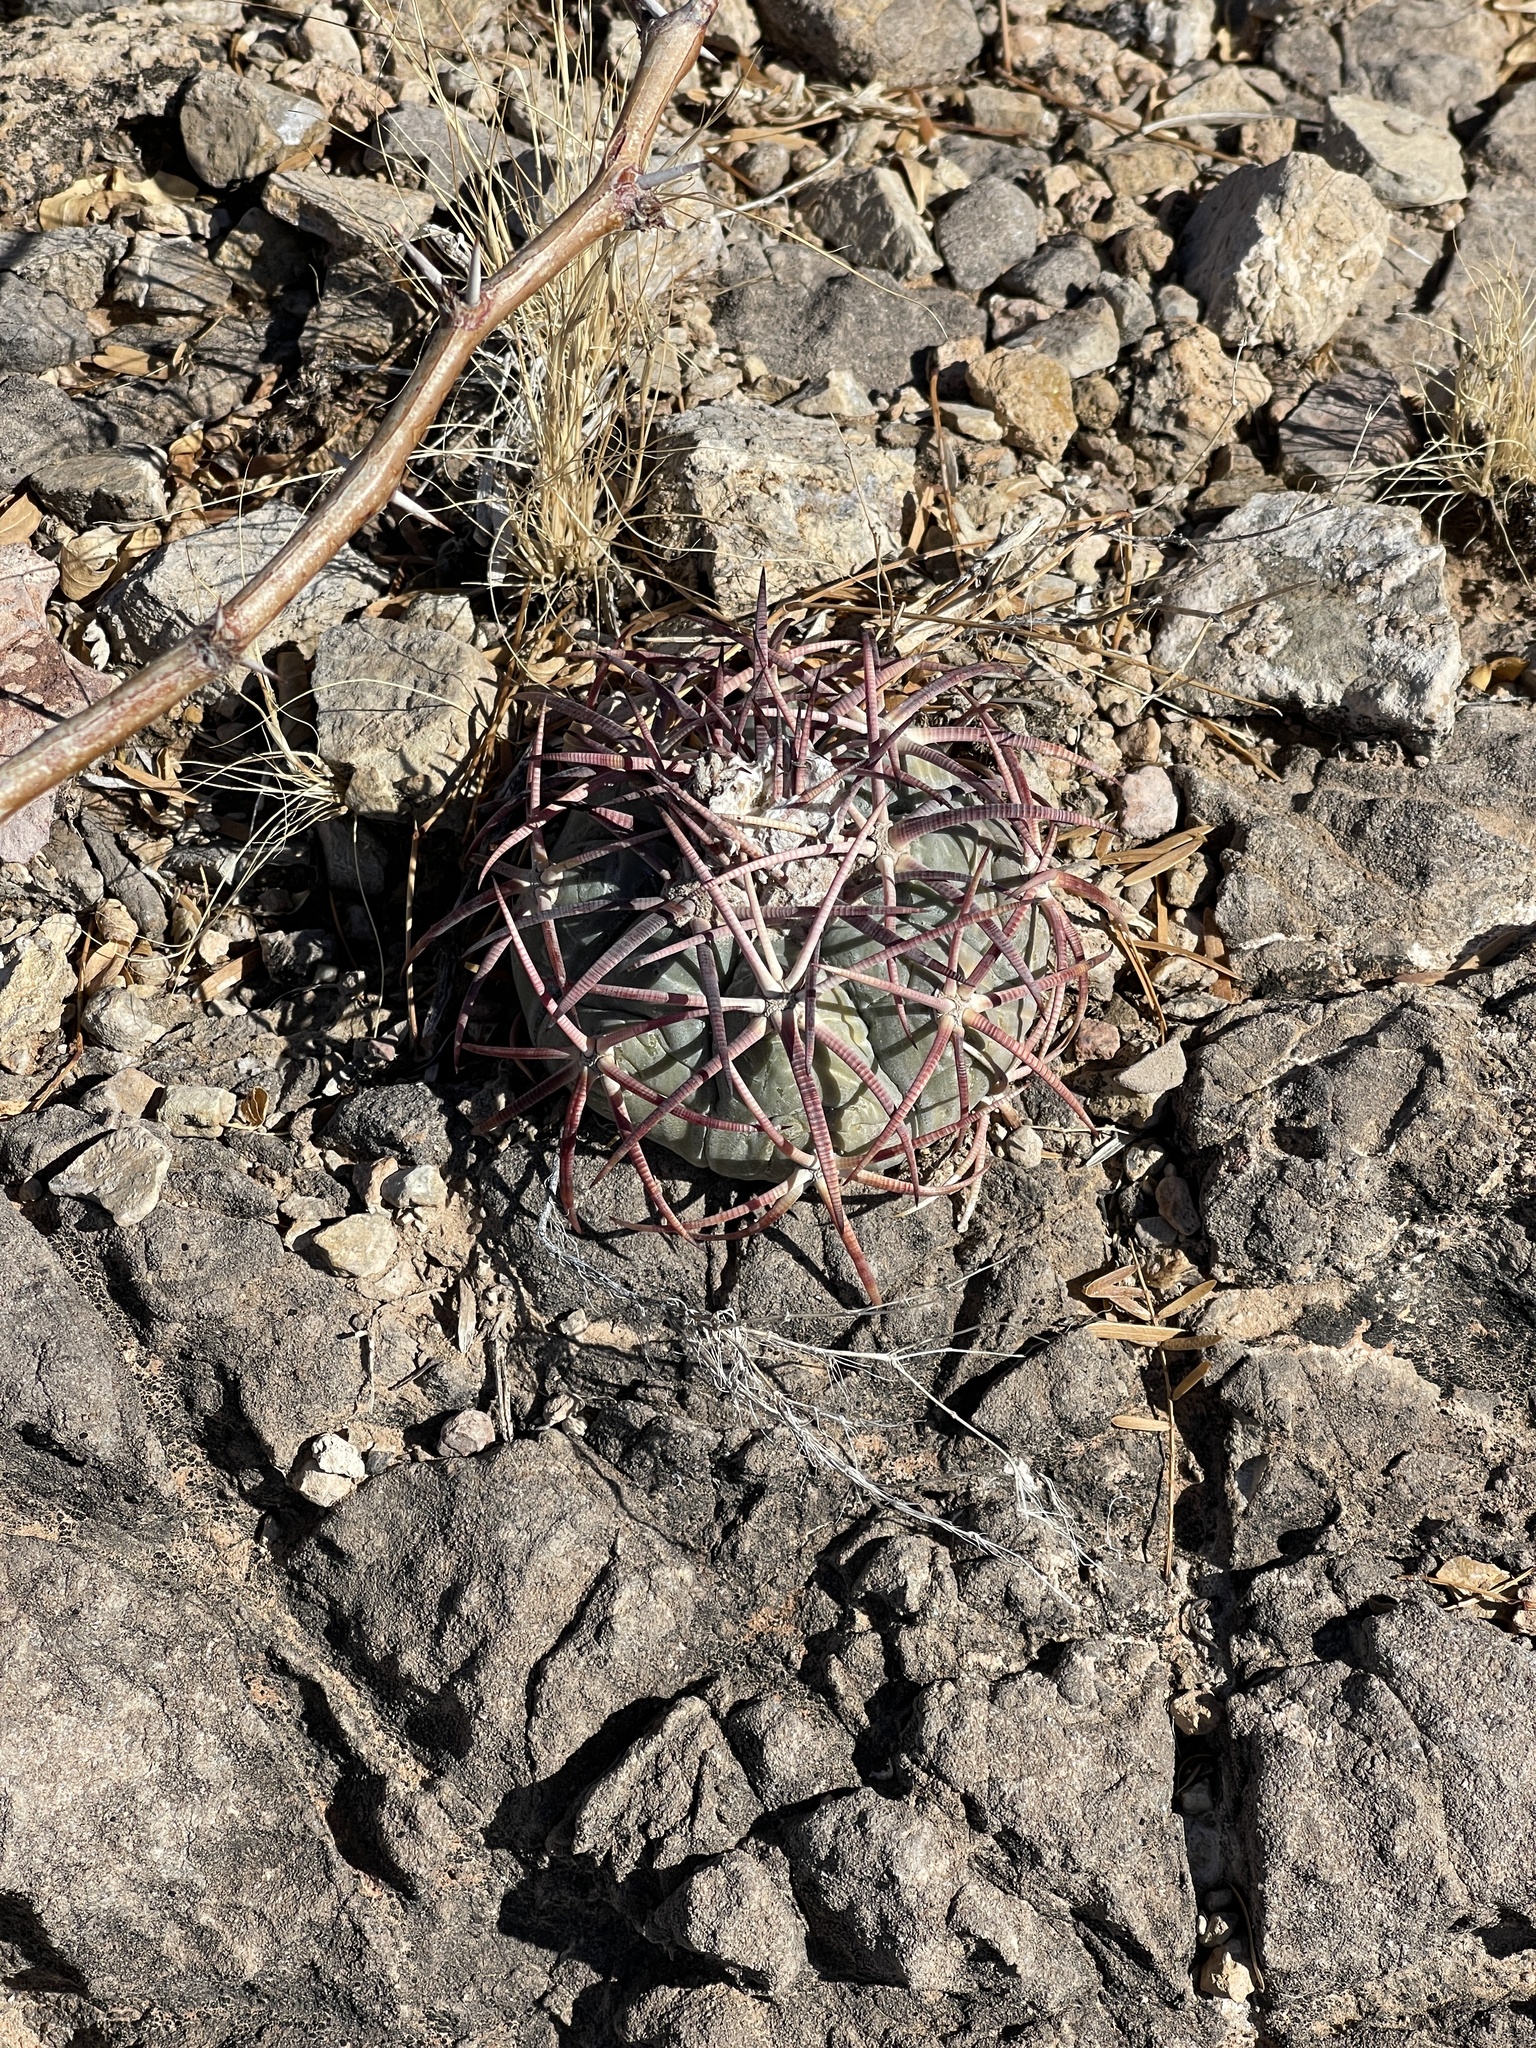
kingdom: Plantae
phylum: Tracheophyta
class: Magnoliopsida
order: Caryophyllales
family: Cactaceae
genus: Echinocactus
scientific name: Echinocactus horizonthalonius
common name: Devilshead
